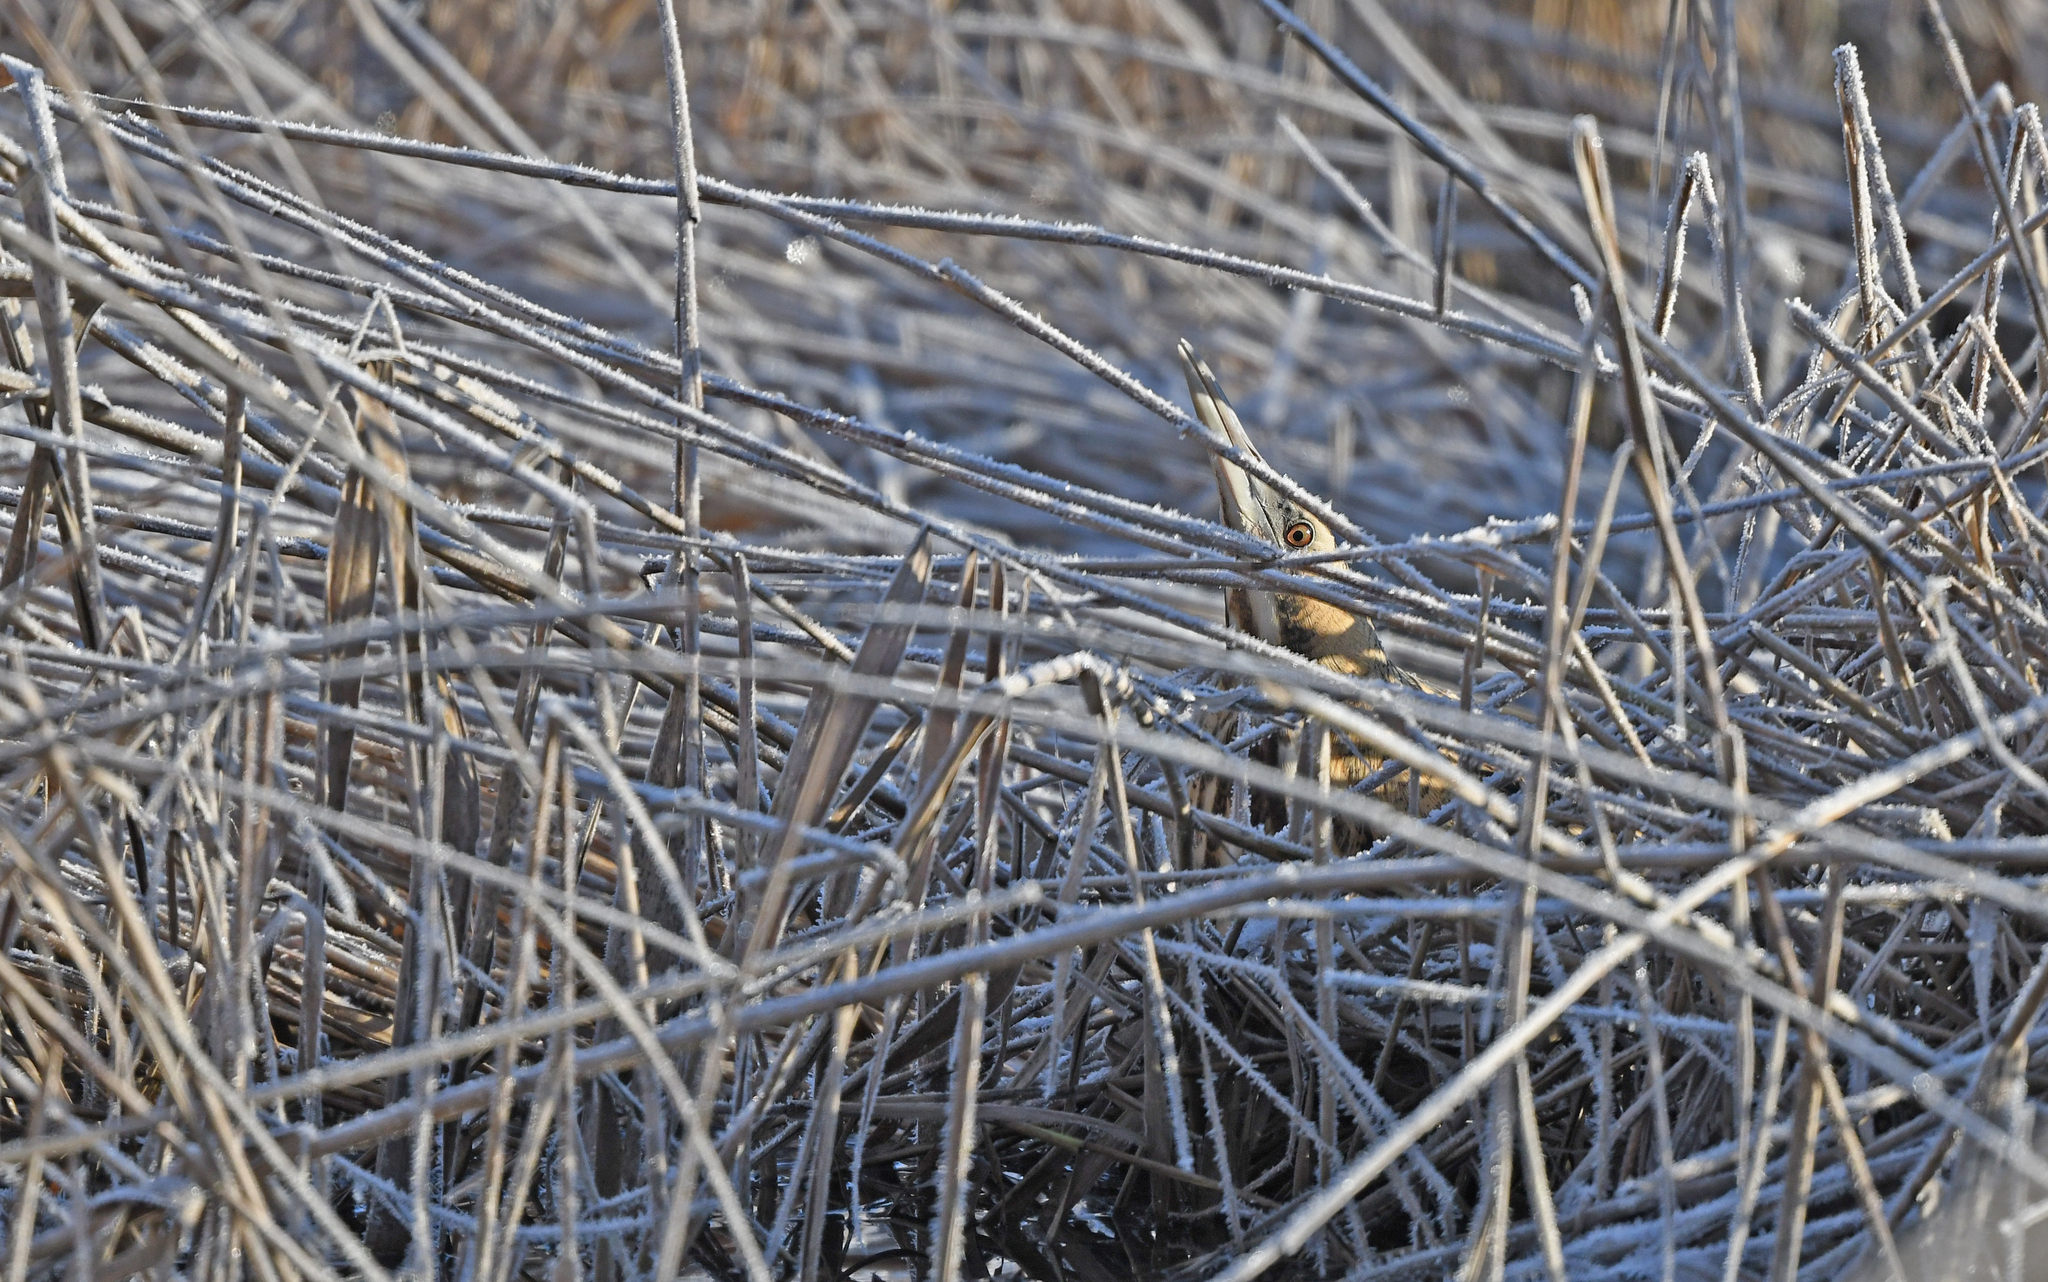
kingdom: Animalia
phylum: Chordata
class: Aves
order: Pelecaniformes
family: Ardeidae
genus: Botaurus
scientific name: Botaurus stellaris
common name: Eurasian bittern
